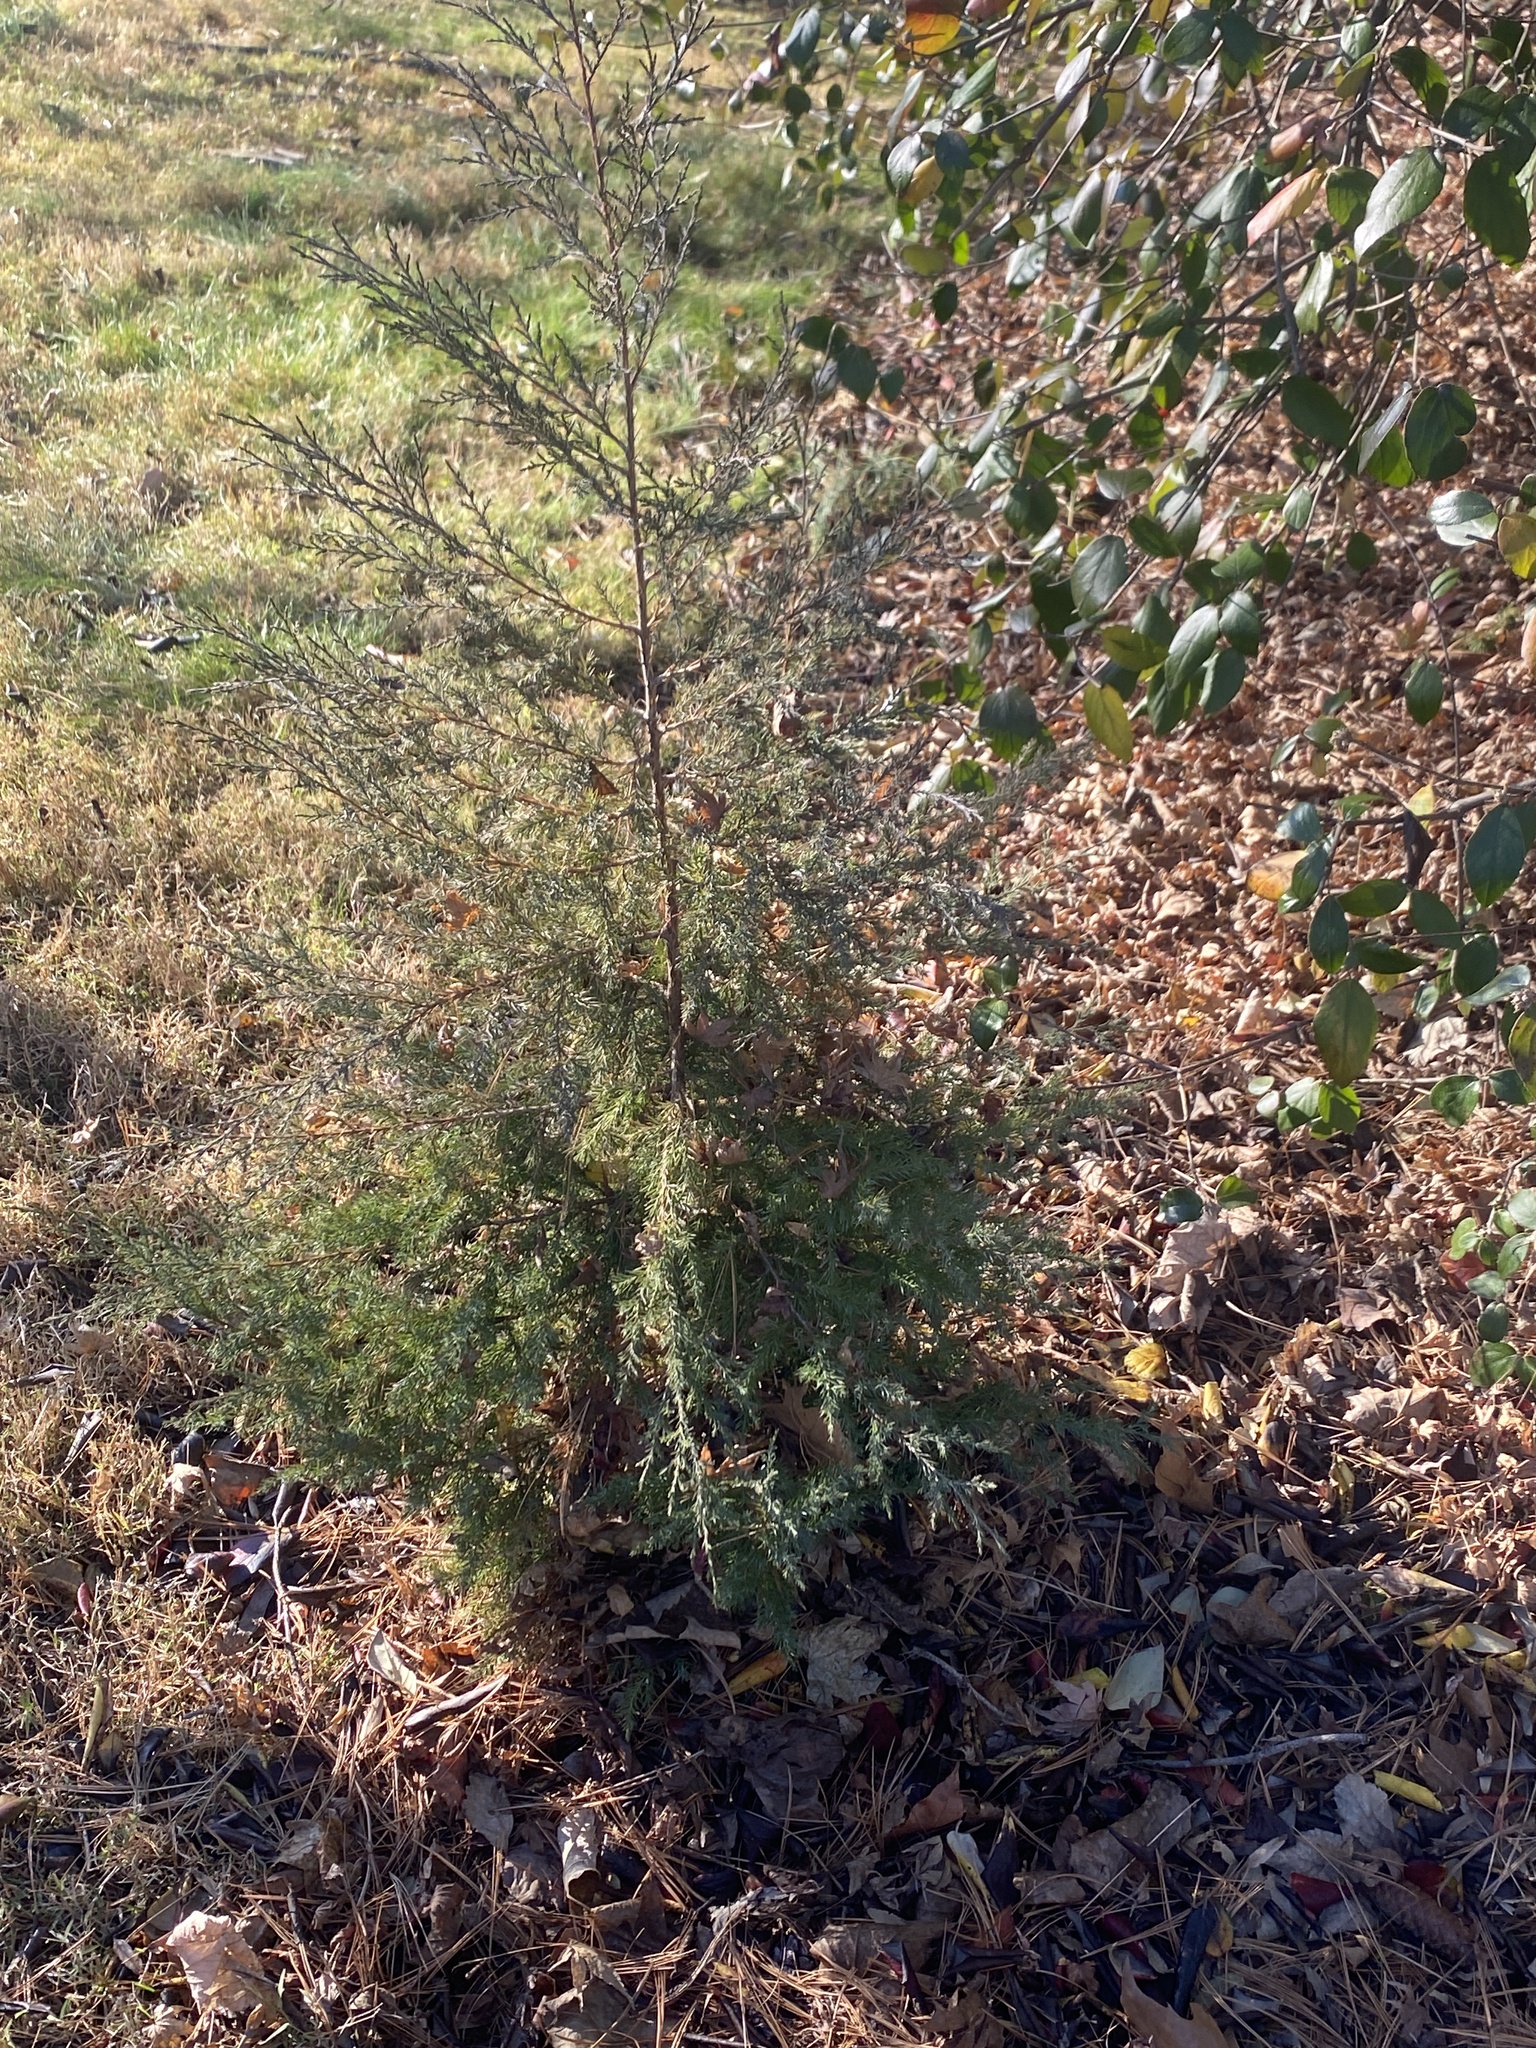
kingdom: Plantae
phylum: Tracheophyta
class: Pinopsida
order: Pinales
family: Cupressaceae
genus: Juniperus
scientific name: Juniperus virginiana
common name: Red juniper
